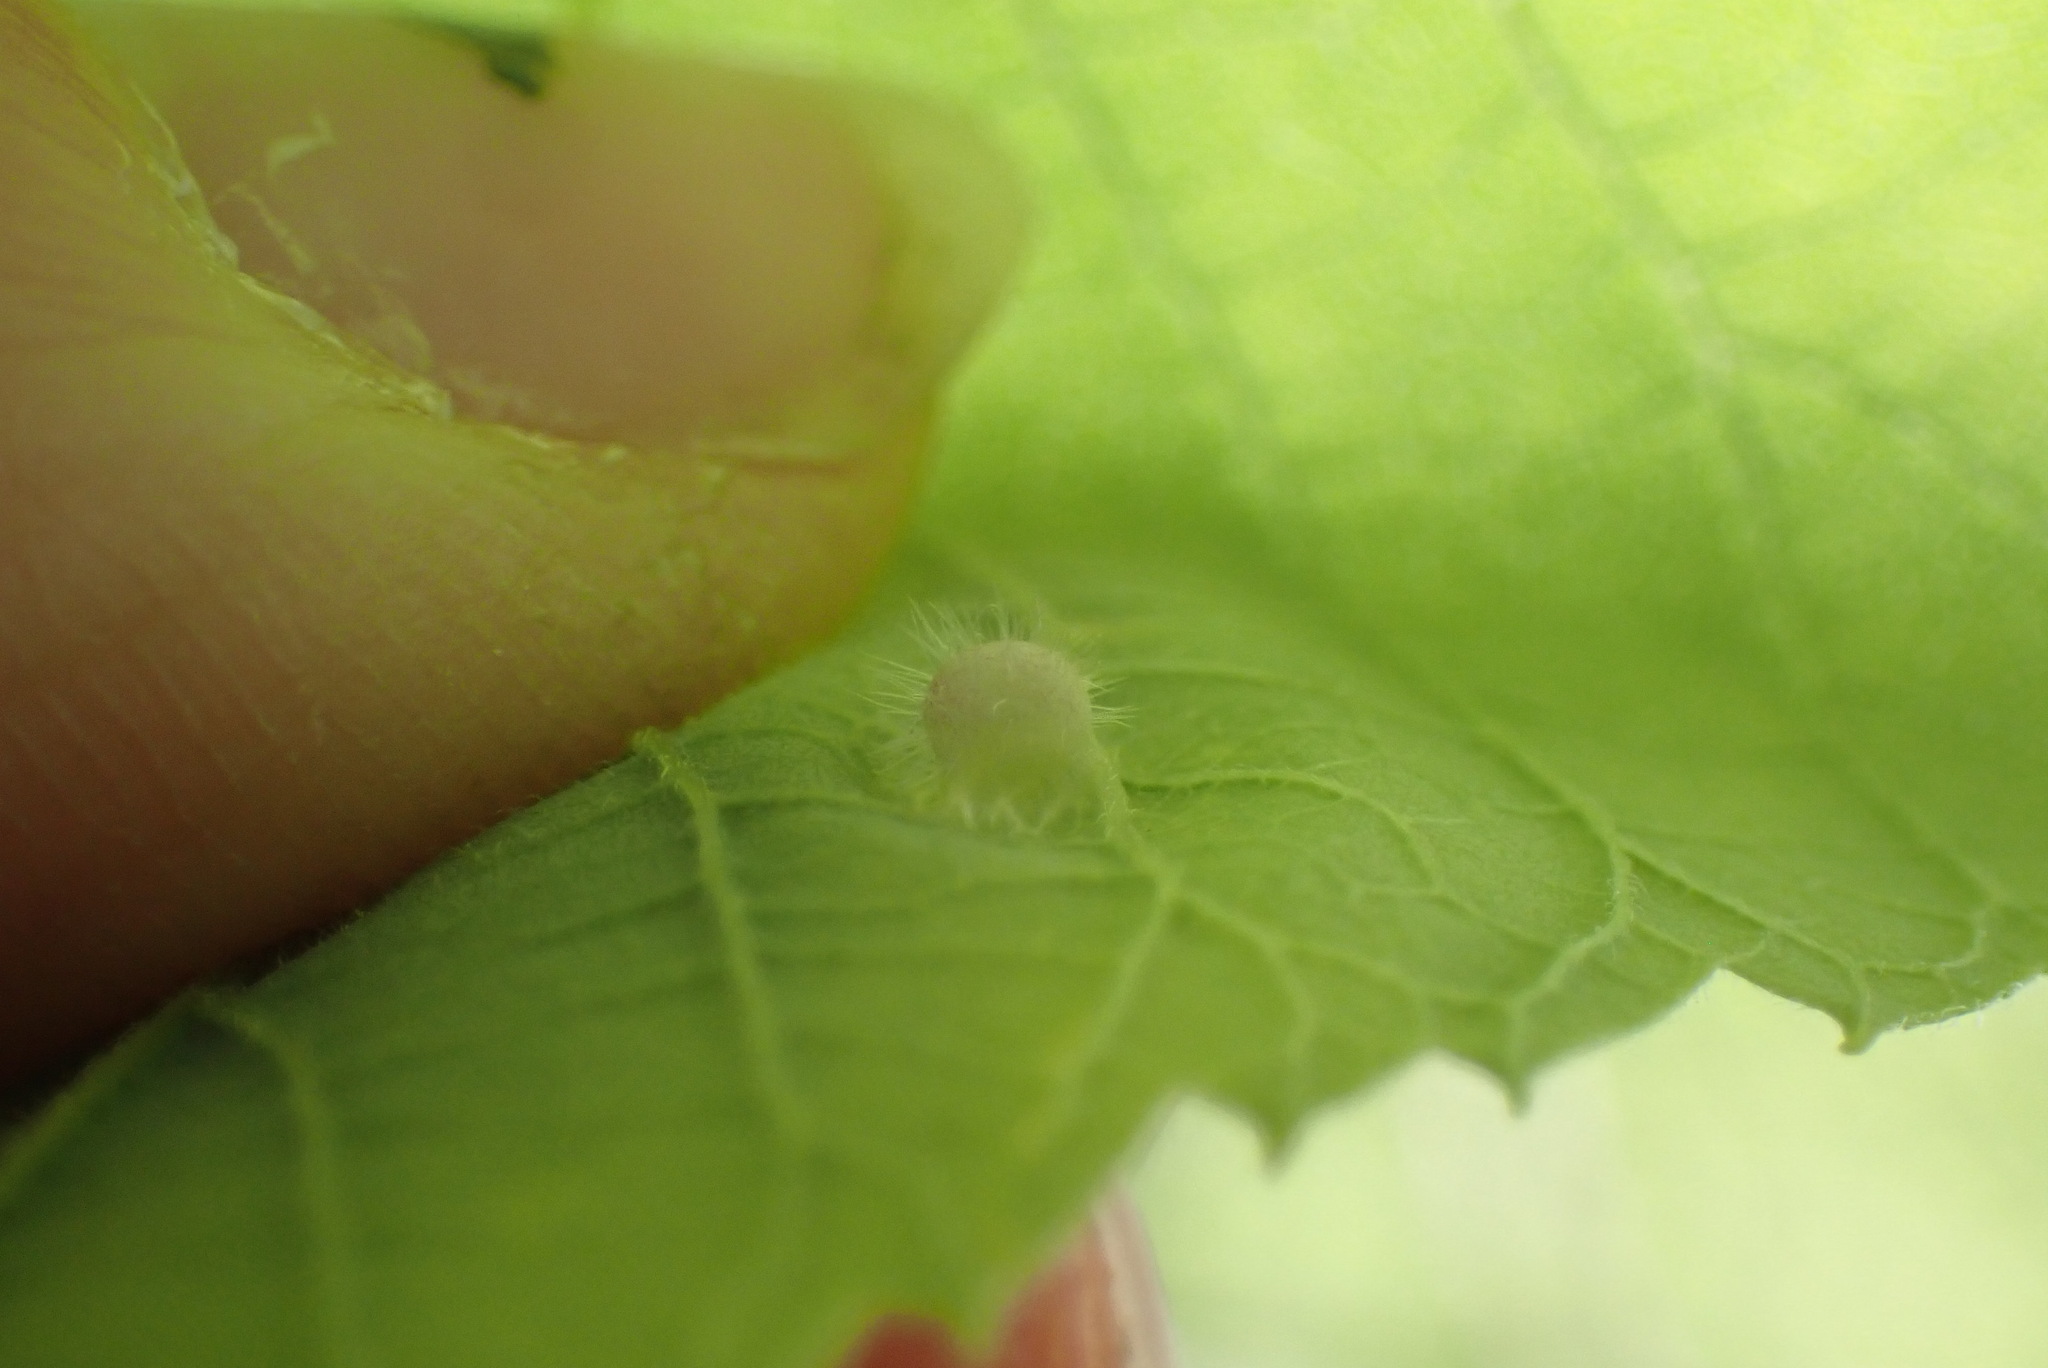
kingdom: Animalia
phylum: Arthropoda
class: Insecta
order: Hemiptera
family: Aphalaridae
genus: Pachypsylla
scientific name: Pachypsylla celtidismamma
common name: Hackberry nipplegall psyllid
